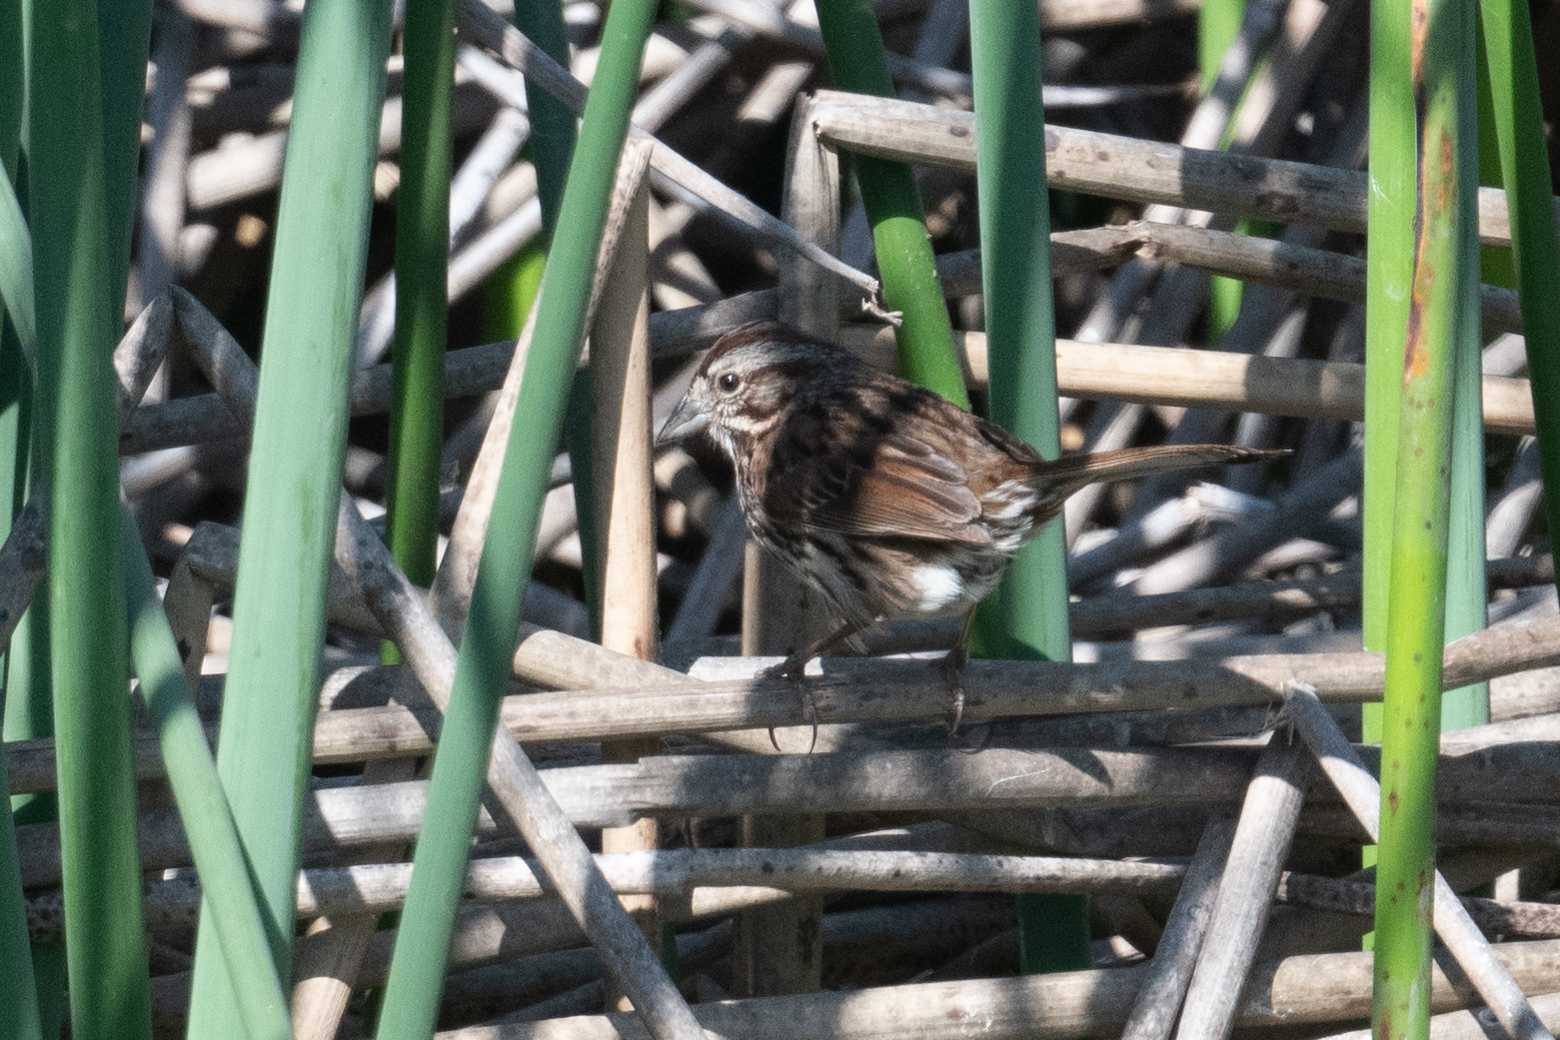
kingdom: Animalia
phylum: Chordata
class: Aves
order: Passeriformes
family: Passerellidae
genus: Melospiza
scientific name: Melospiza melodia
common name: Song sparrow
